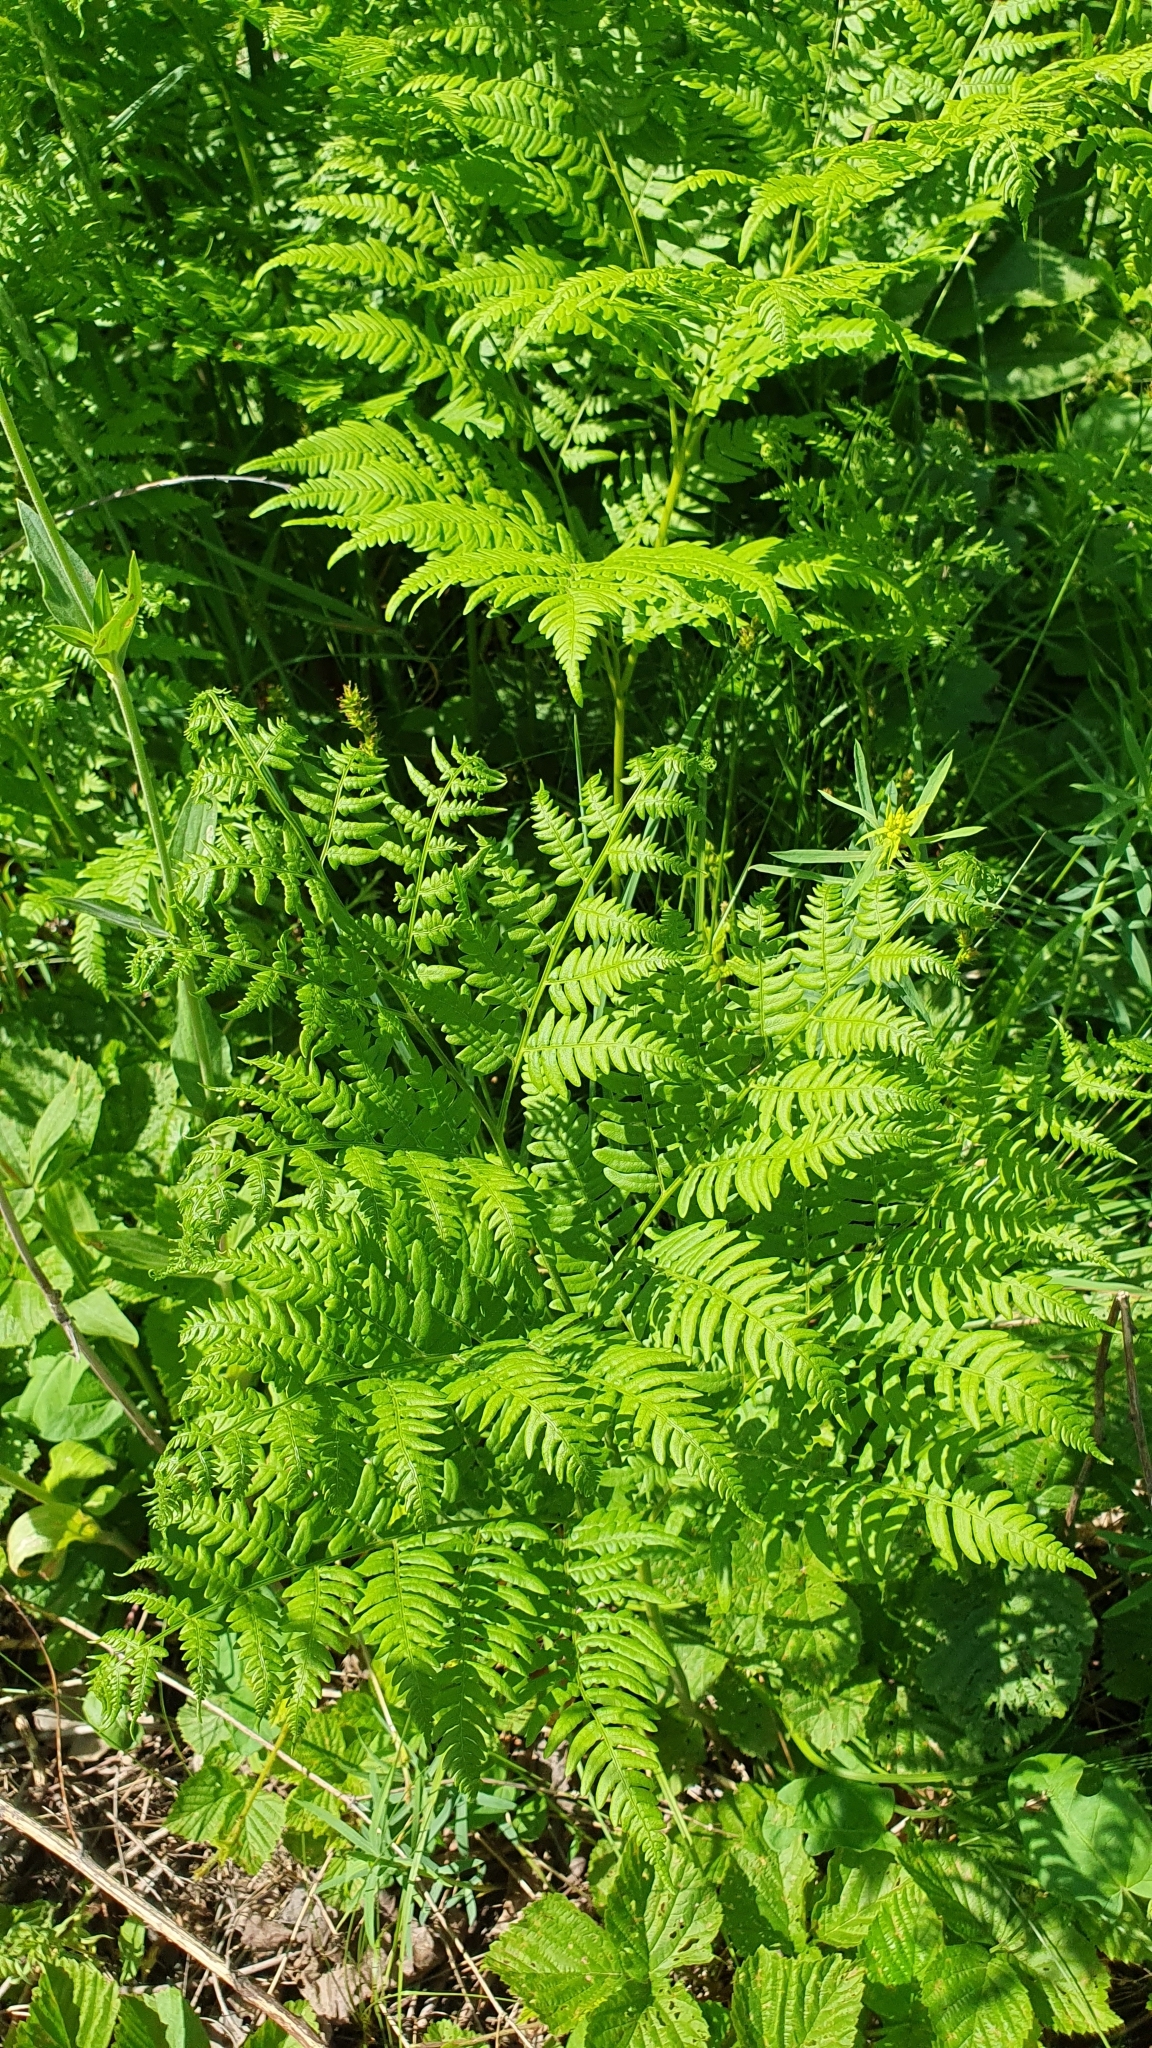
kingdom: Plantae
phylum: Tracheophyta
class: Polypodiopsida
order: Polypodiales
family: Dennstaedtiaceae
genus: Pteridium
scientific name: Pteridium aquilinum
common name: Bracken
